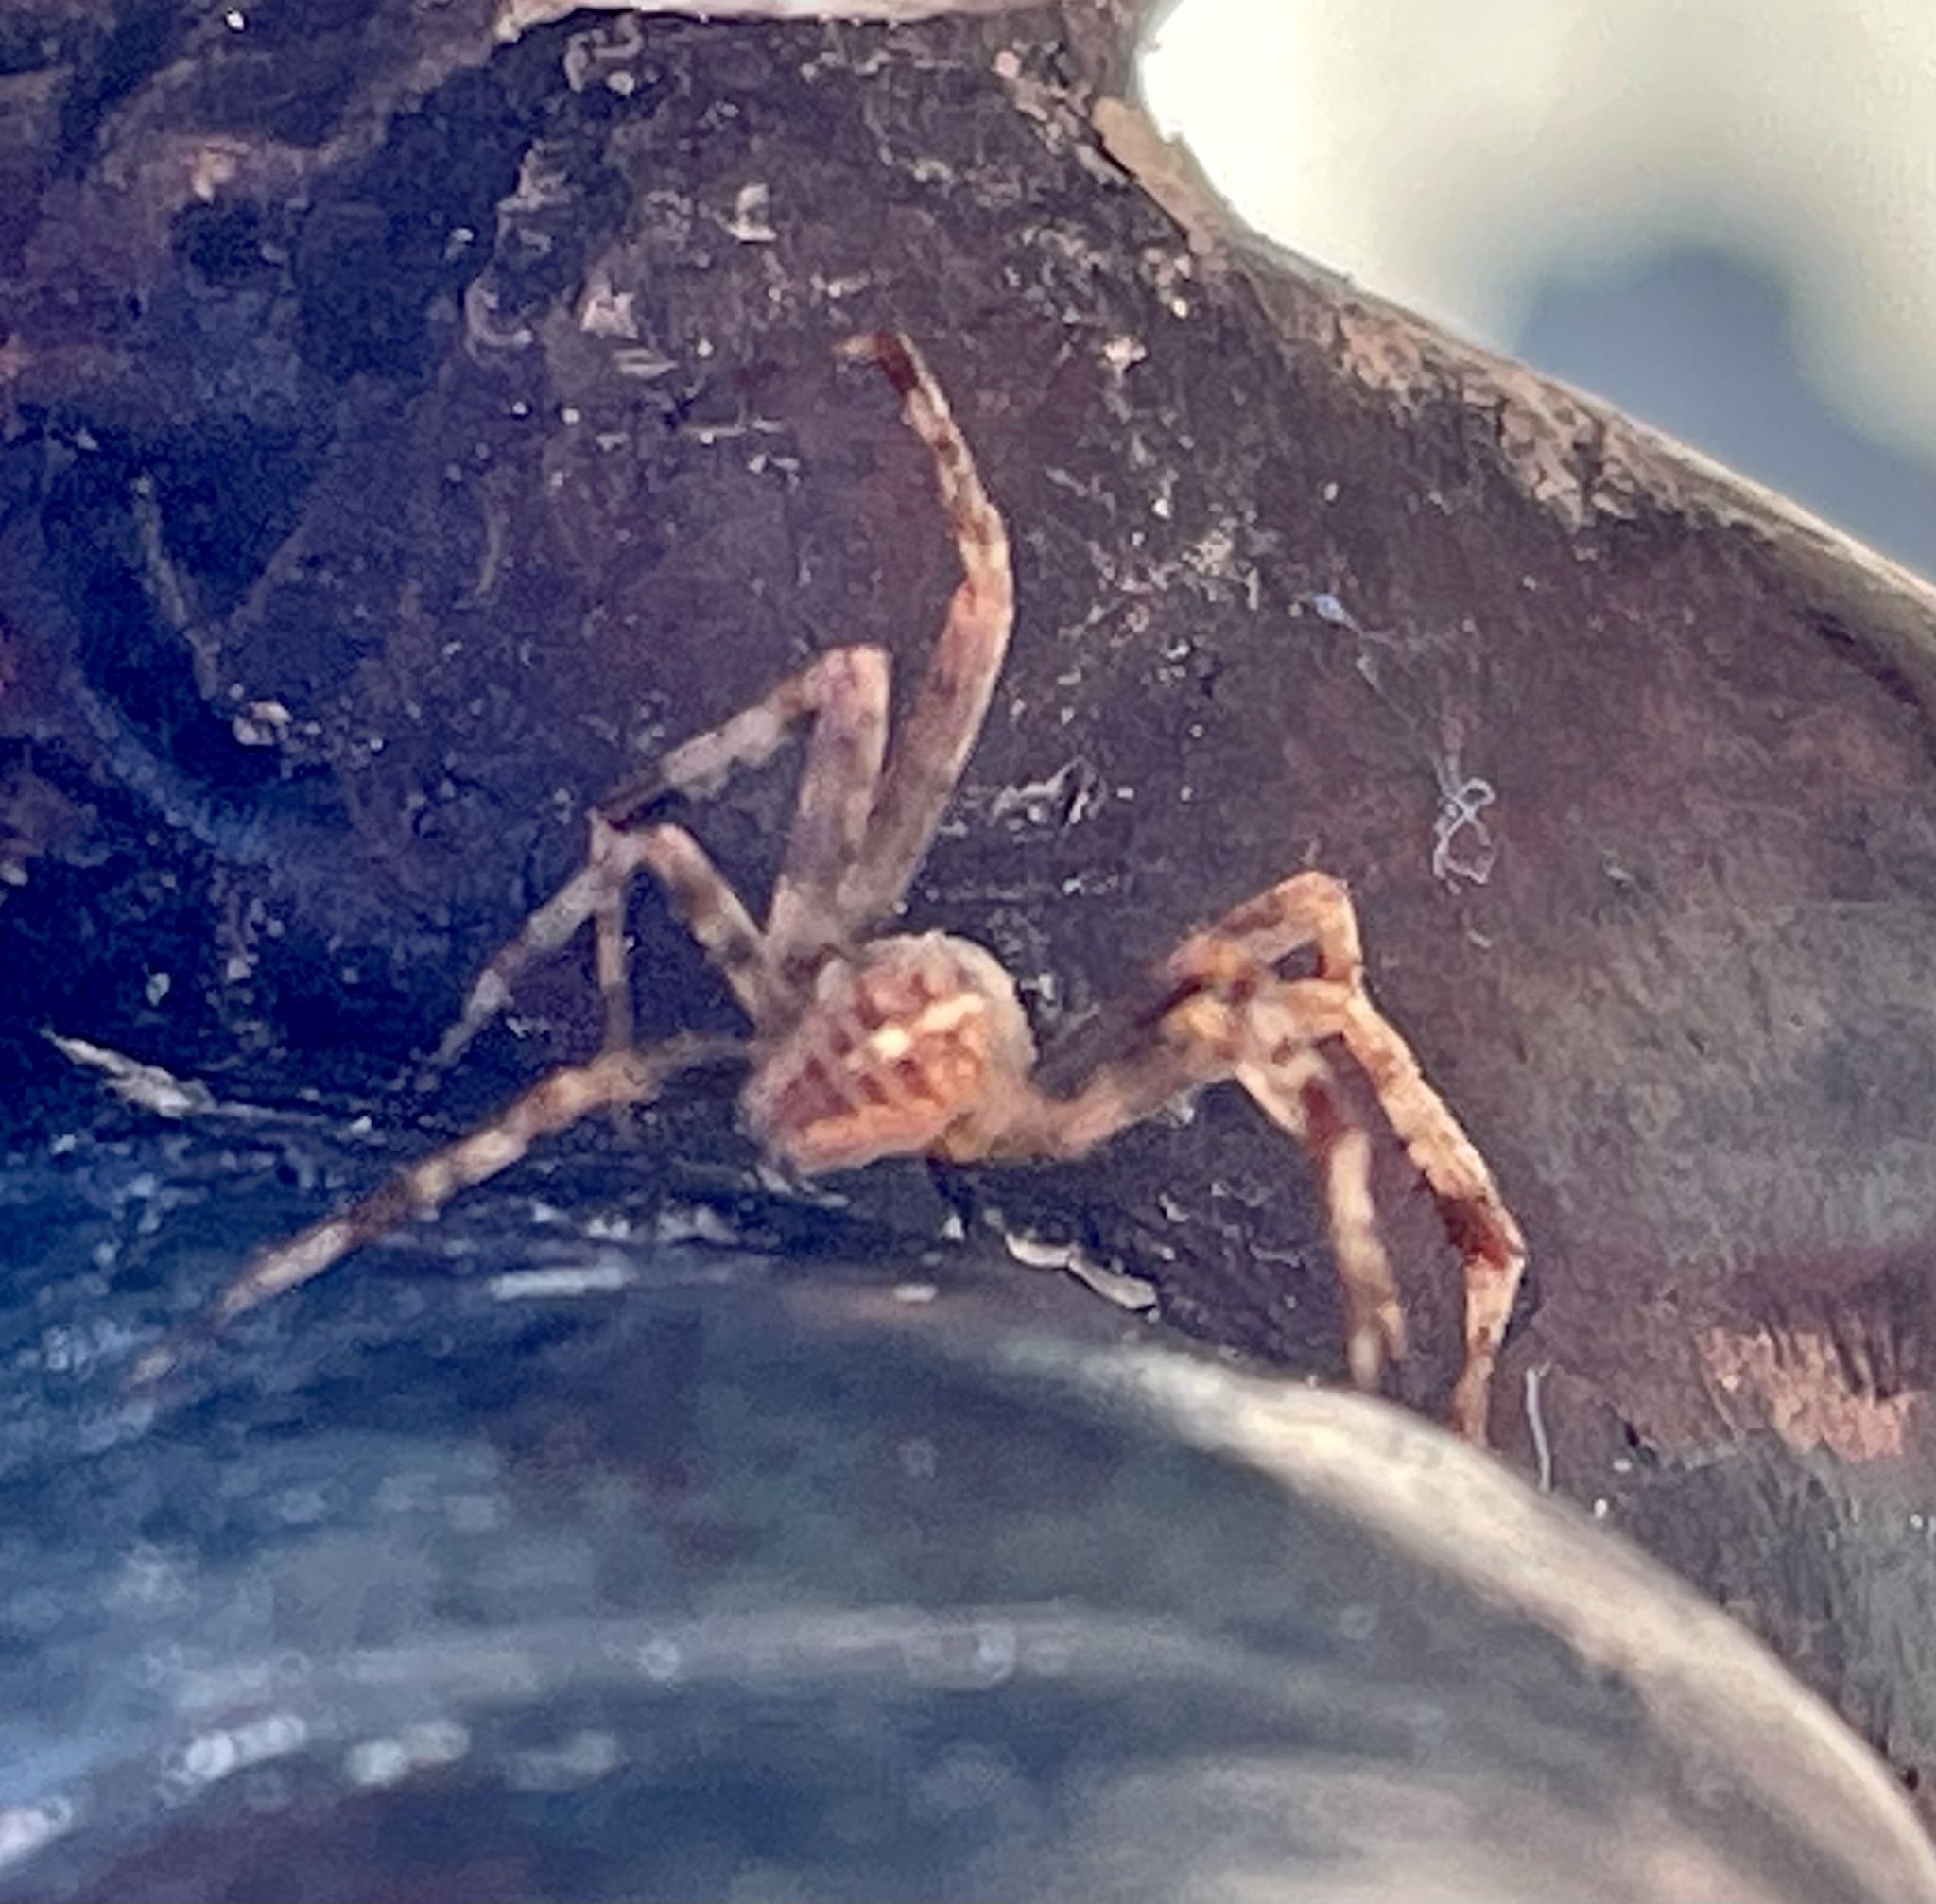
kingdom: Animalia
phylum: Arthropoda
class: Arachnida
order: Araneae
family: Araneidae
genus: Araneus
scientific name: Araneus diadematus
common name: Cross orbweaver
